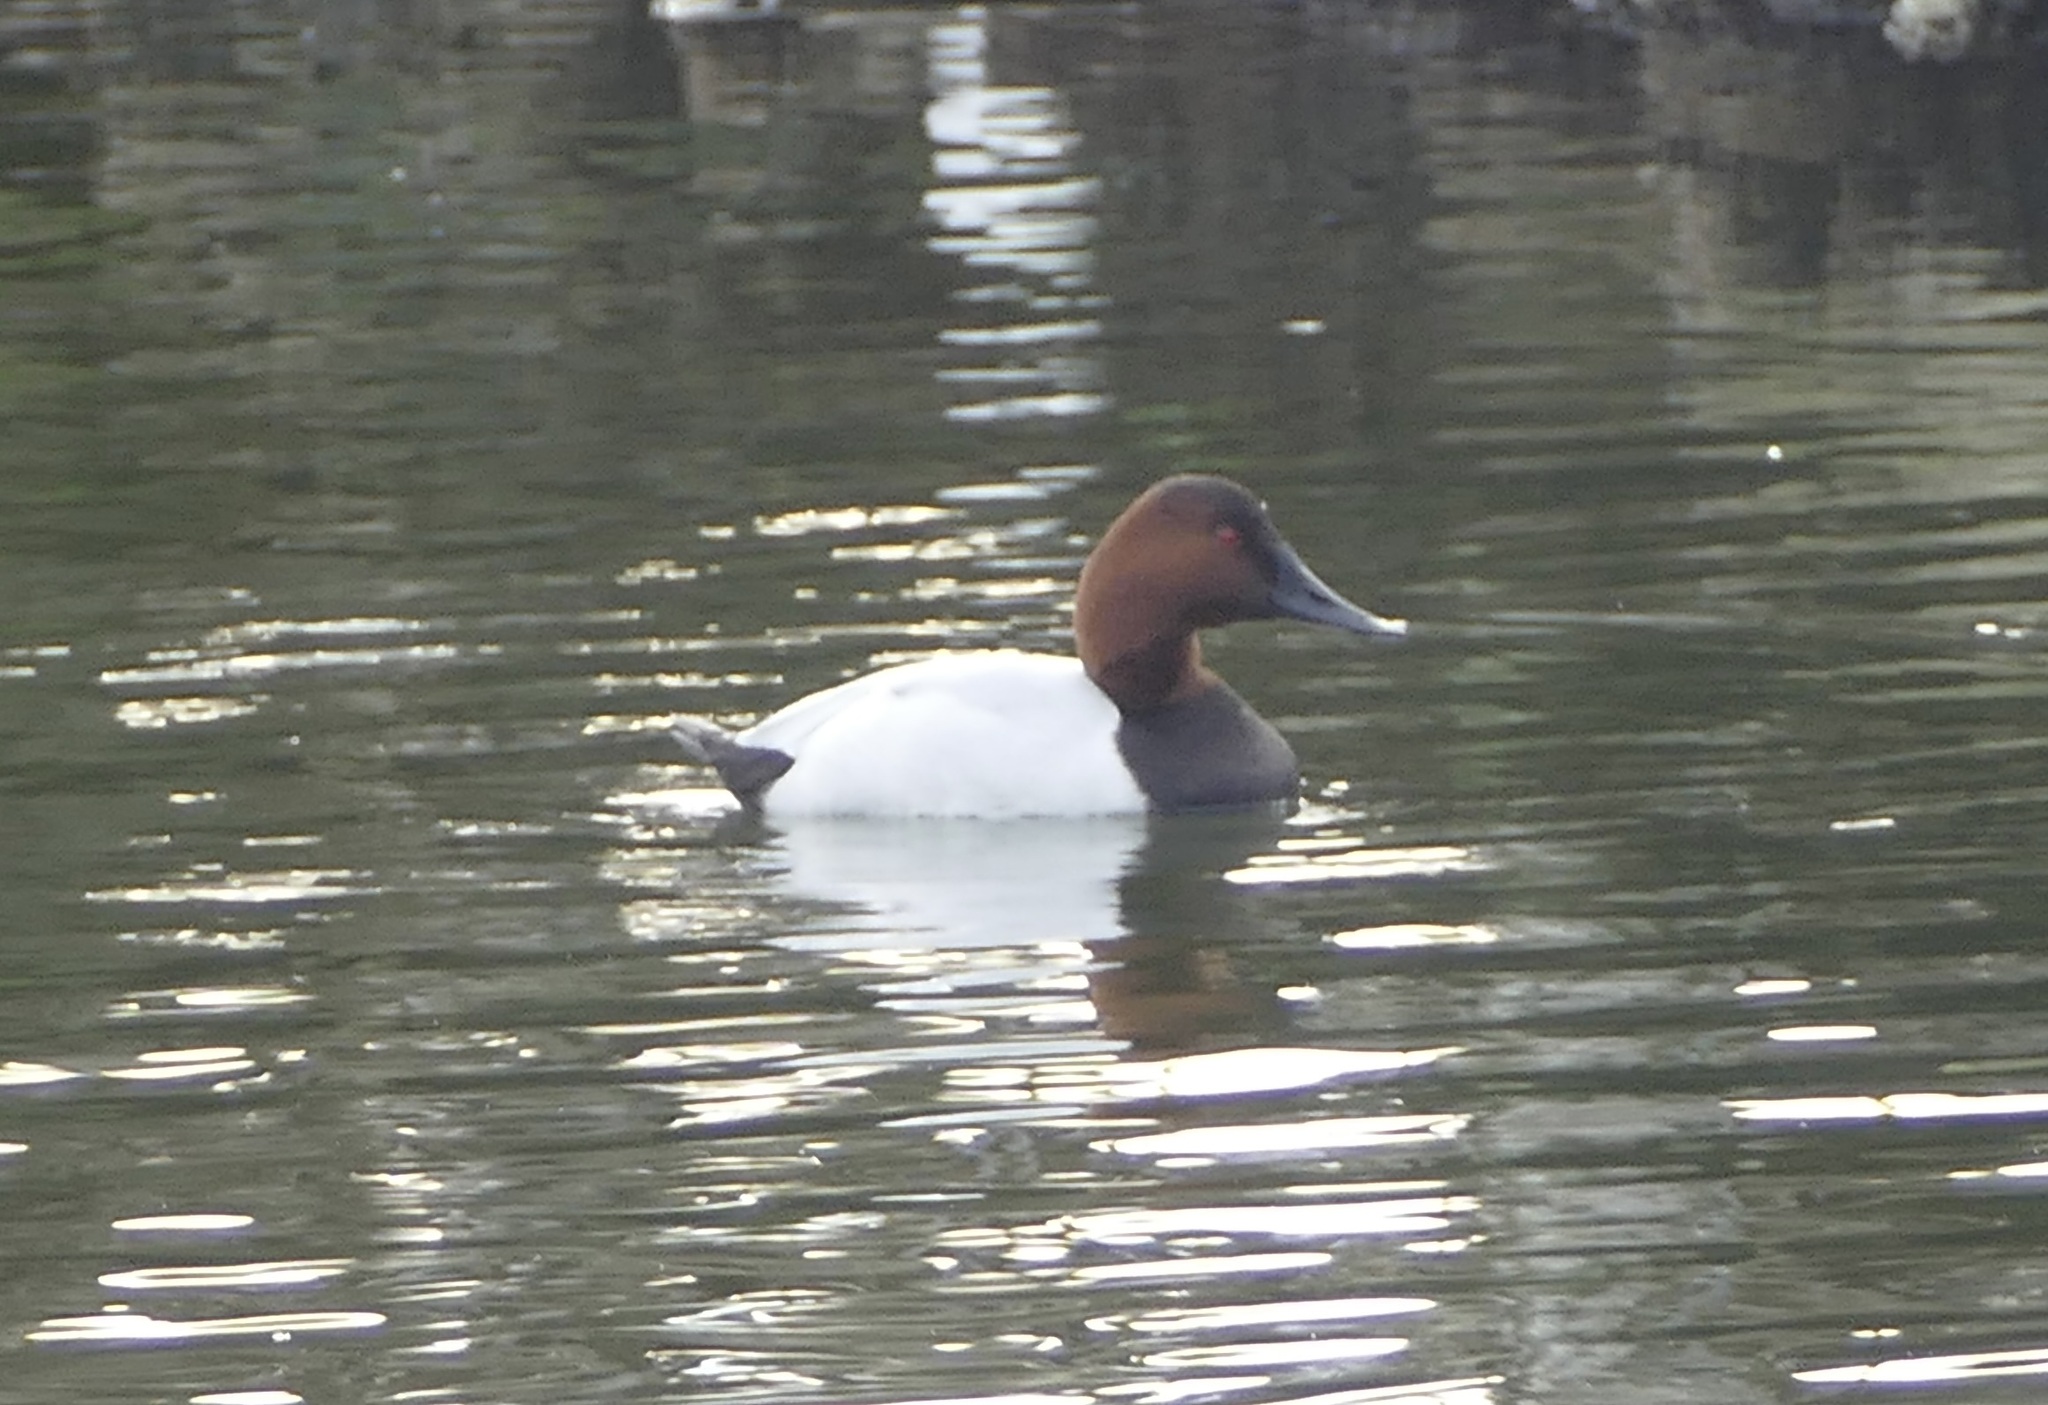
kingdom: Animalia
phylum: Chordata
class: Aves
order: Anseriformes
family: Anatidae
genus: Aythya
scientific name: Aythya valisineria
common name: Canvasback
